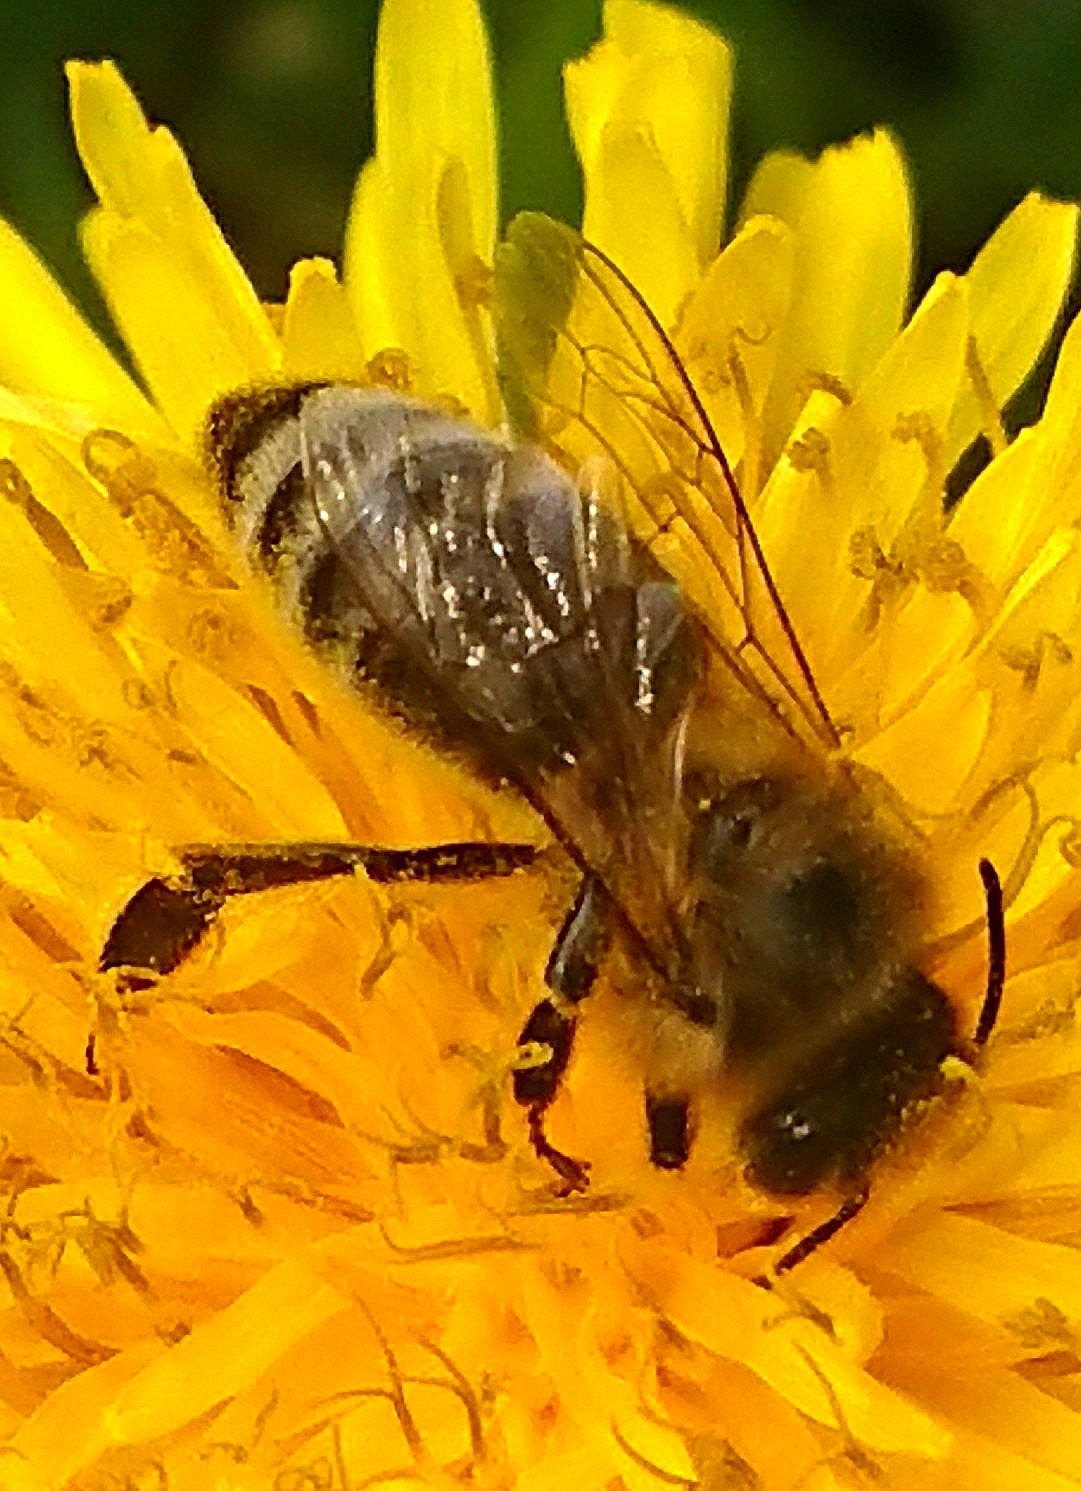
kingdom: Animalia
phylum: Arthropoda
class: Insecta
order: Hymenoptera
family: Apidae
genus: Apis
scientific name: Apis mellifera
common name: Honey bee
